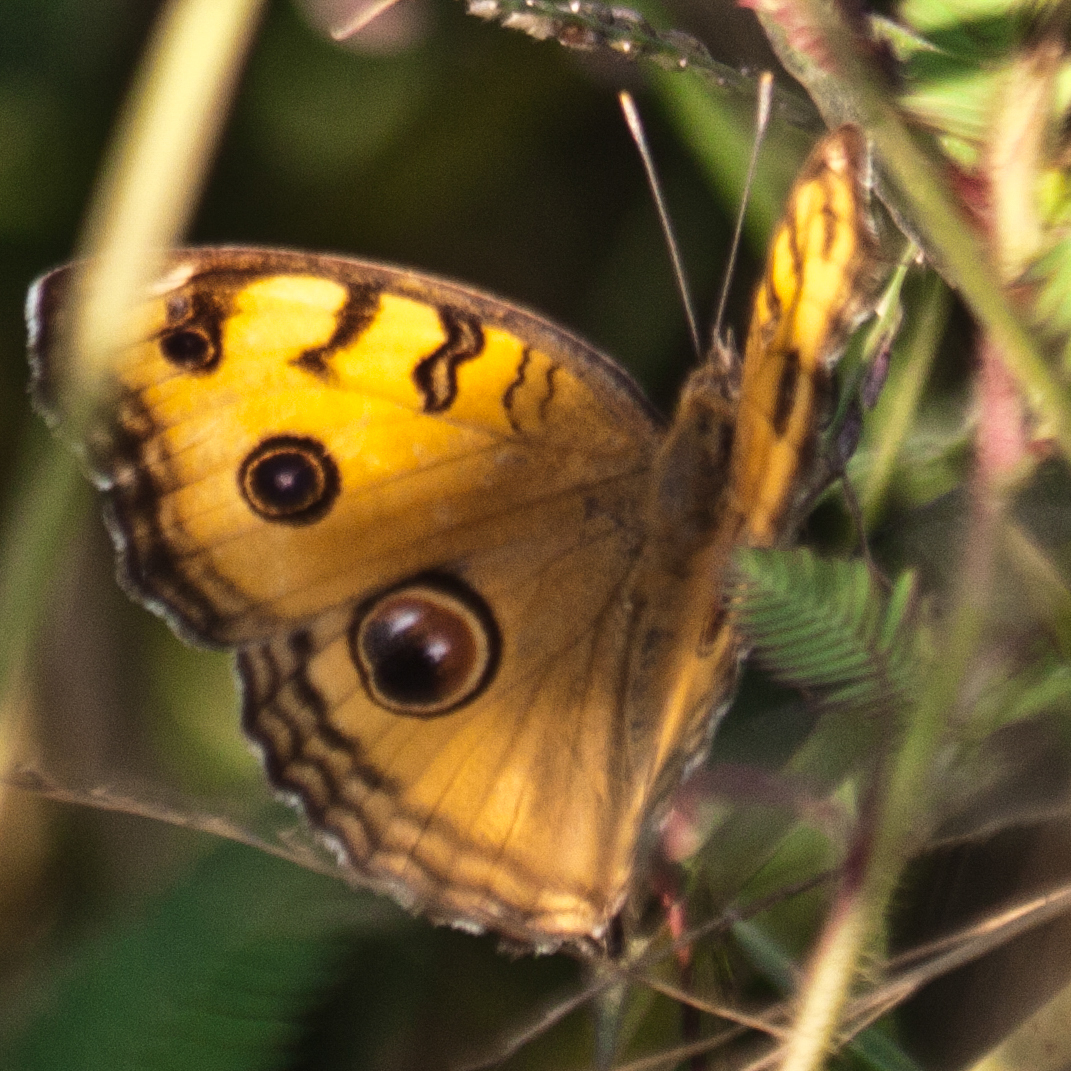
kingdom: Animalia
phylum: Arthropoda
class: Insecta
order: Lepidoptera
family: Nymphalidae
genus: Junonia
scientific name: Junonia almana
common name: Peacock pansy
